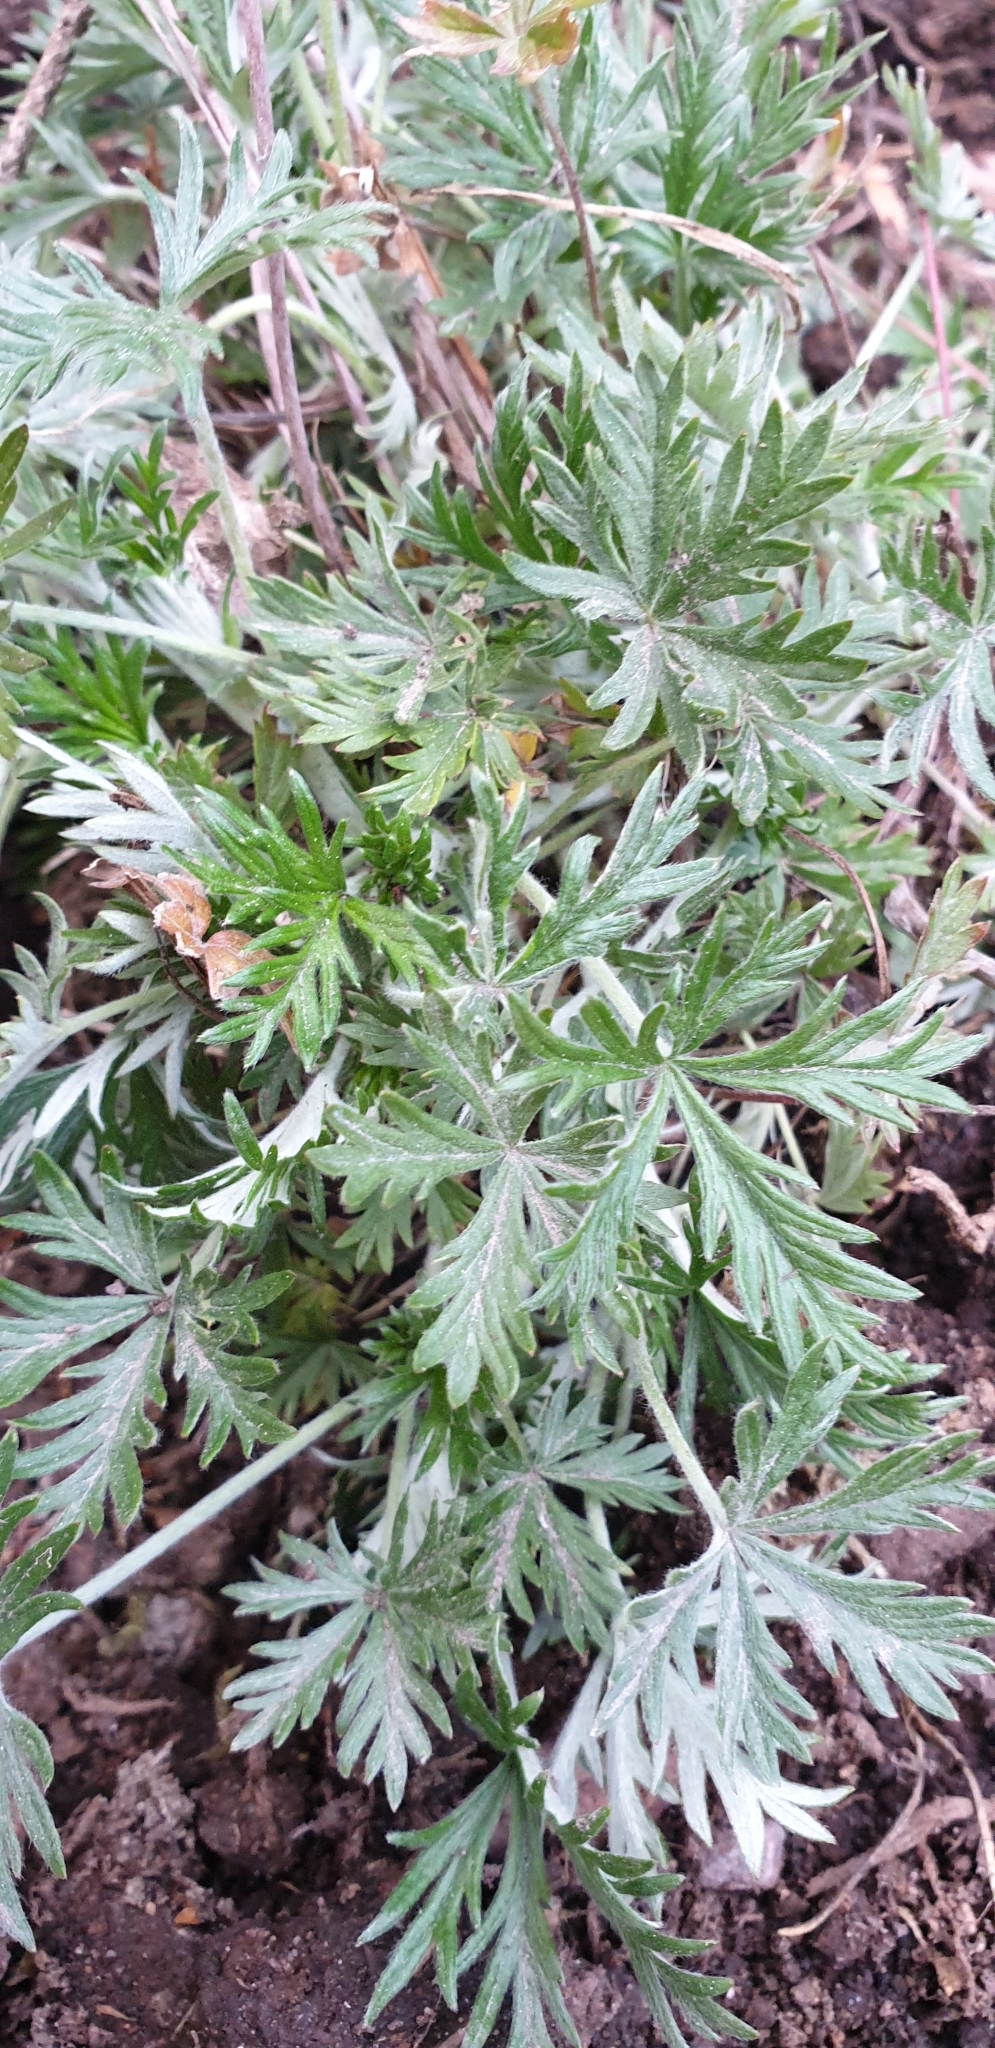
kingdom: Plantae
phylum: Tracheophyta
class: Magnoliopsida
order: Rosales
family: Rosaceae
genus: Potentilla
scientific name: Potentilla argentea
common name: Hoary cinquefoil
